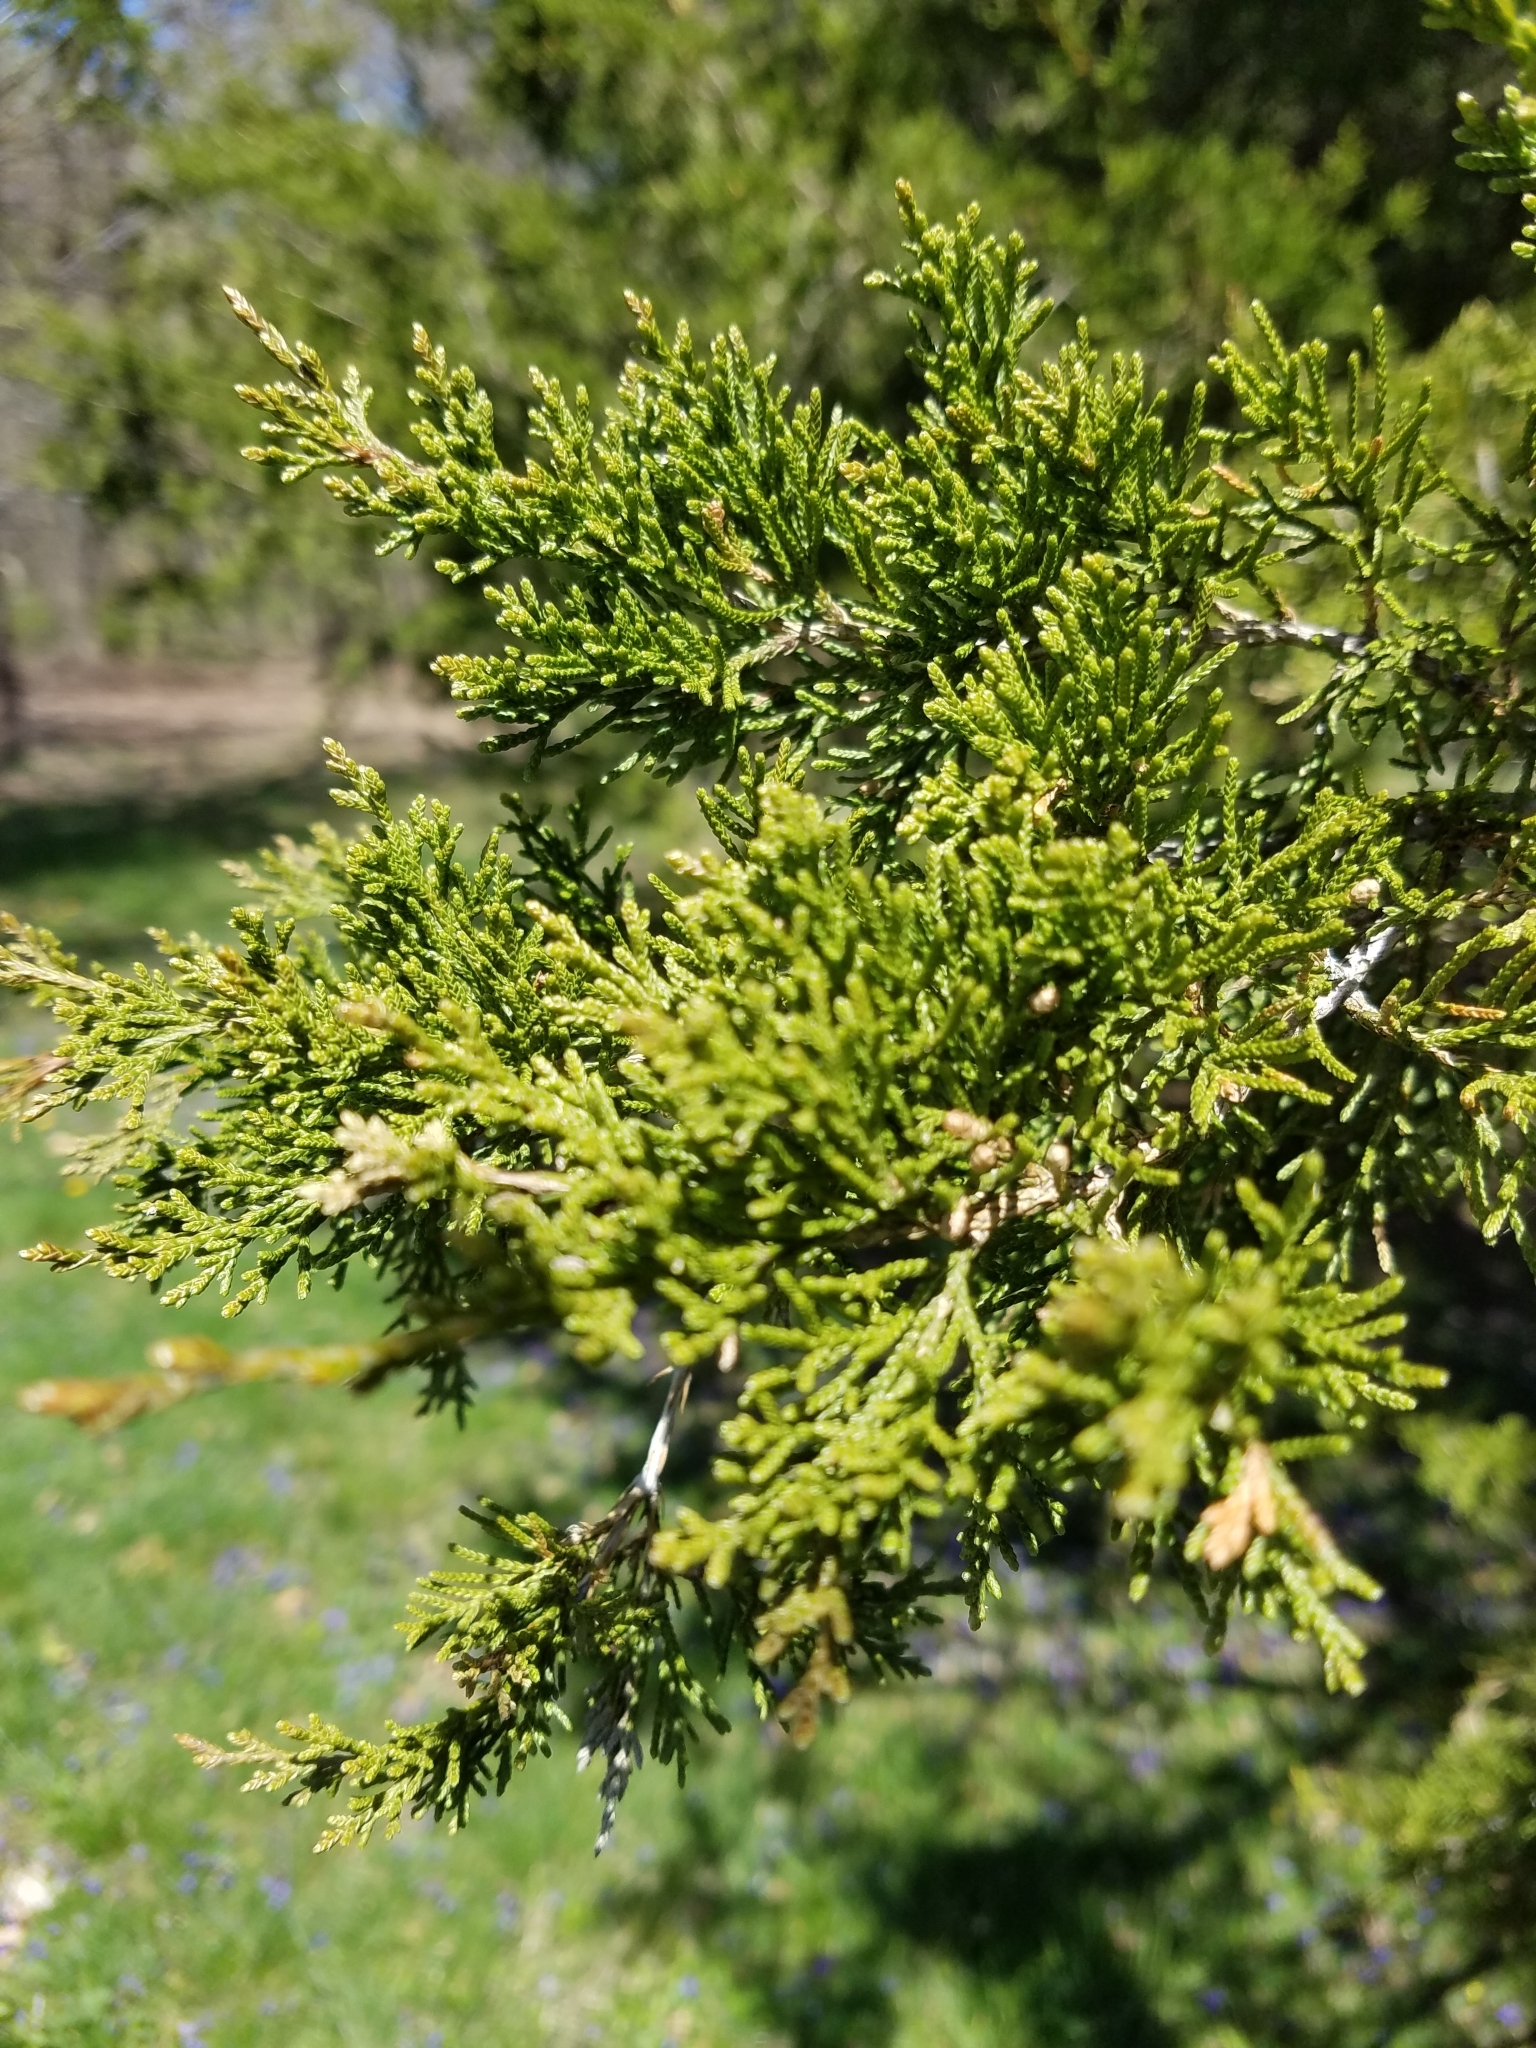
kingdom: Plantae
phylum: Tracheophyta
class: Pinopsida
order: Pinales
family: Cupressaceae
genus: Juniperus
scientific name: Juniperus virginiana
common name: Red juniper
